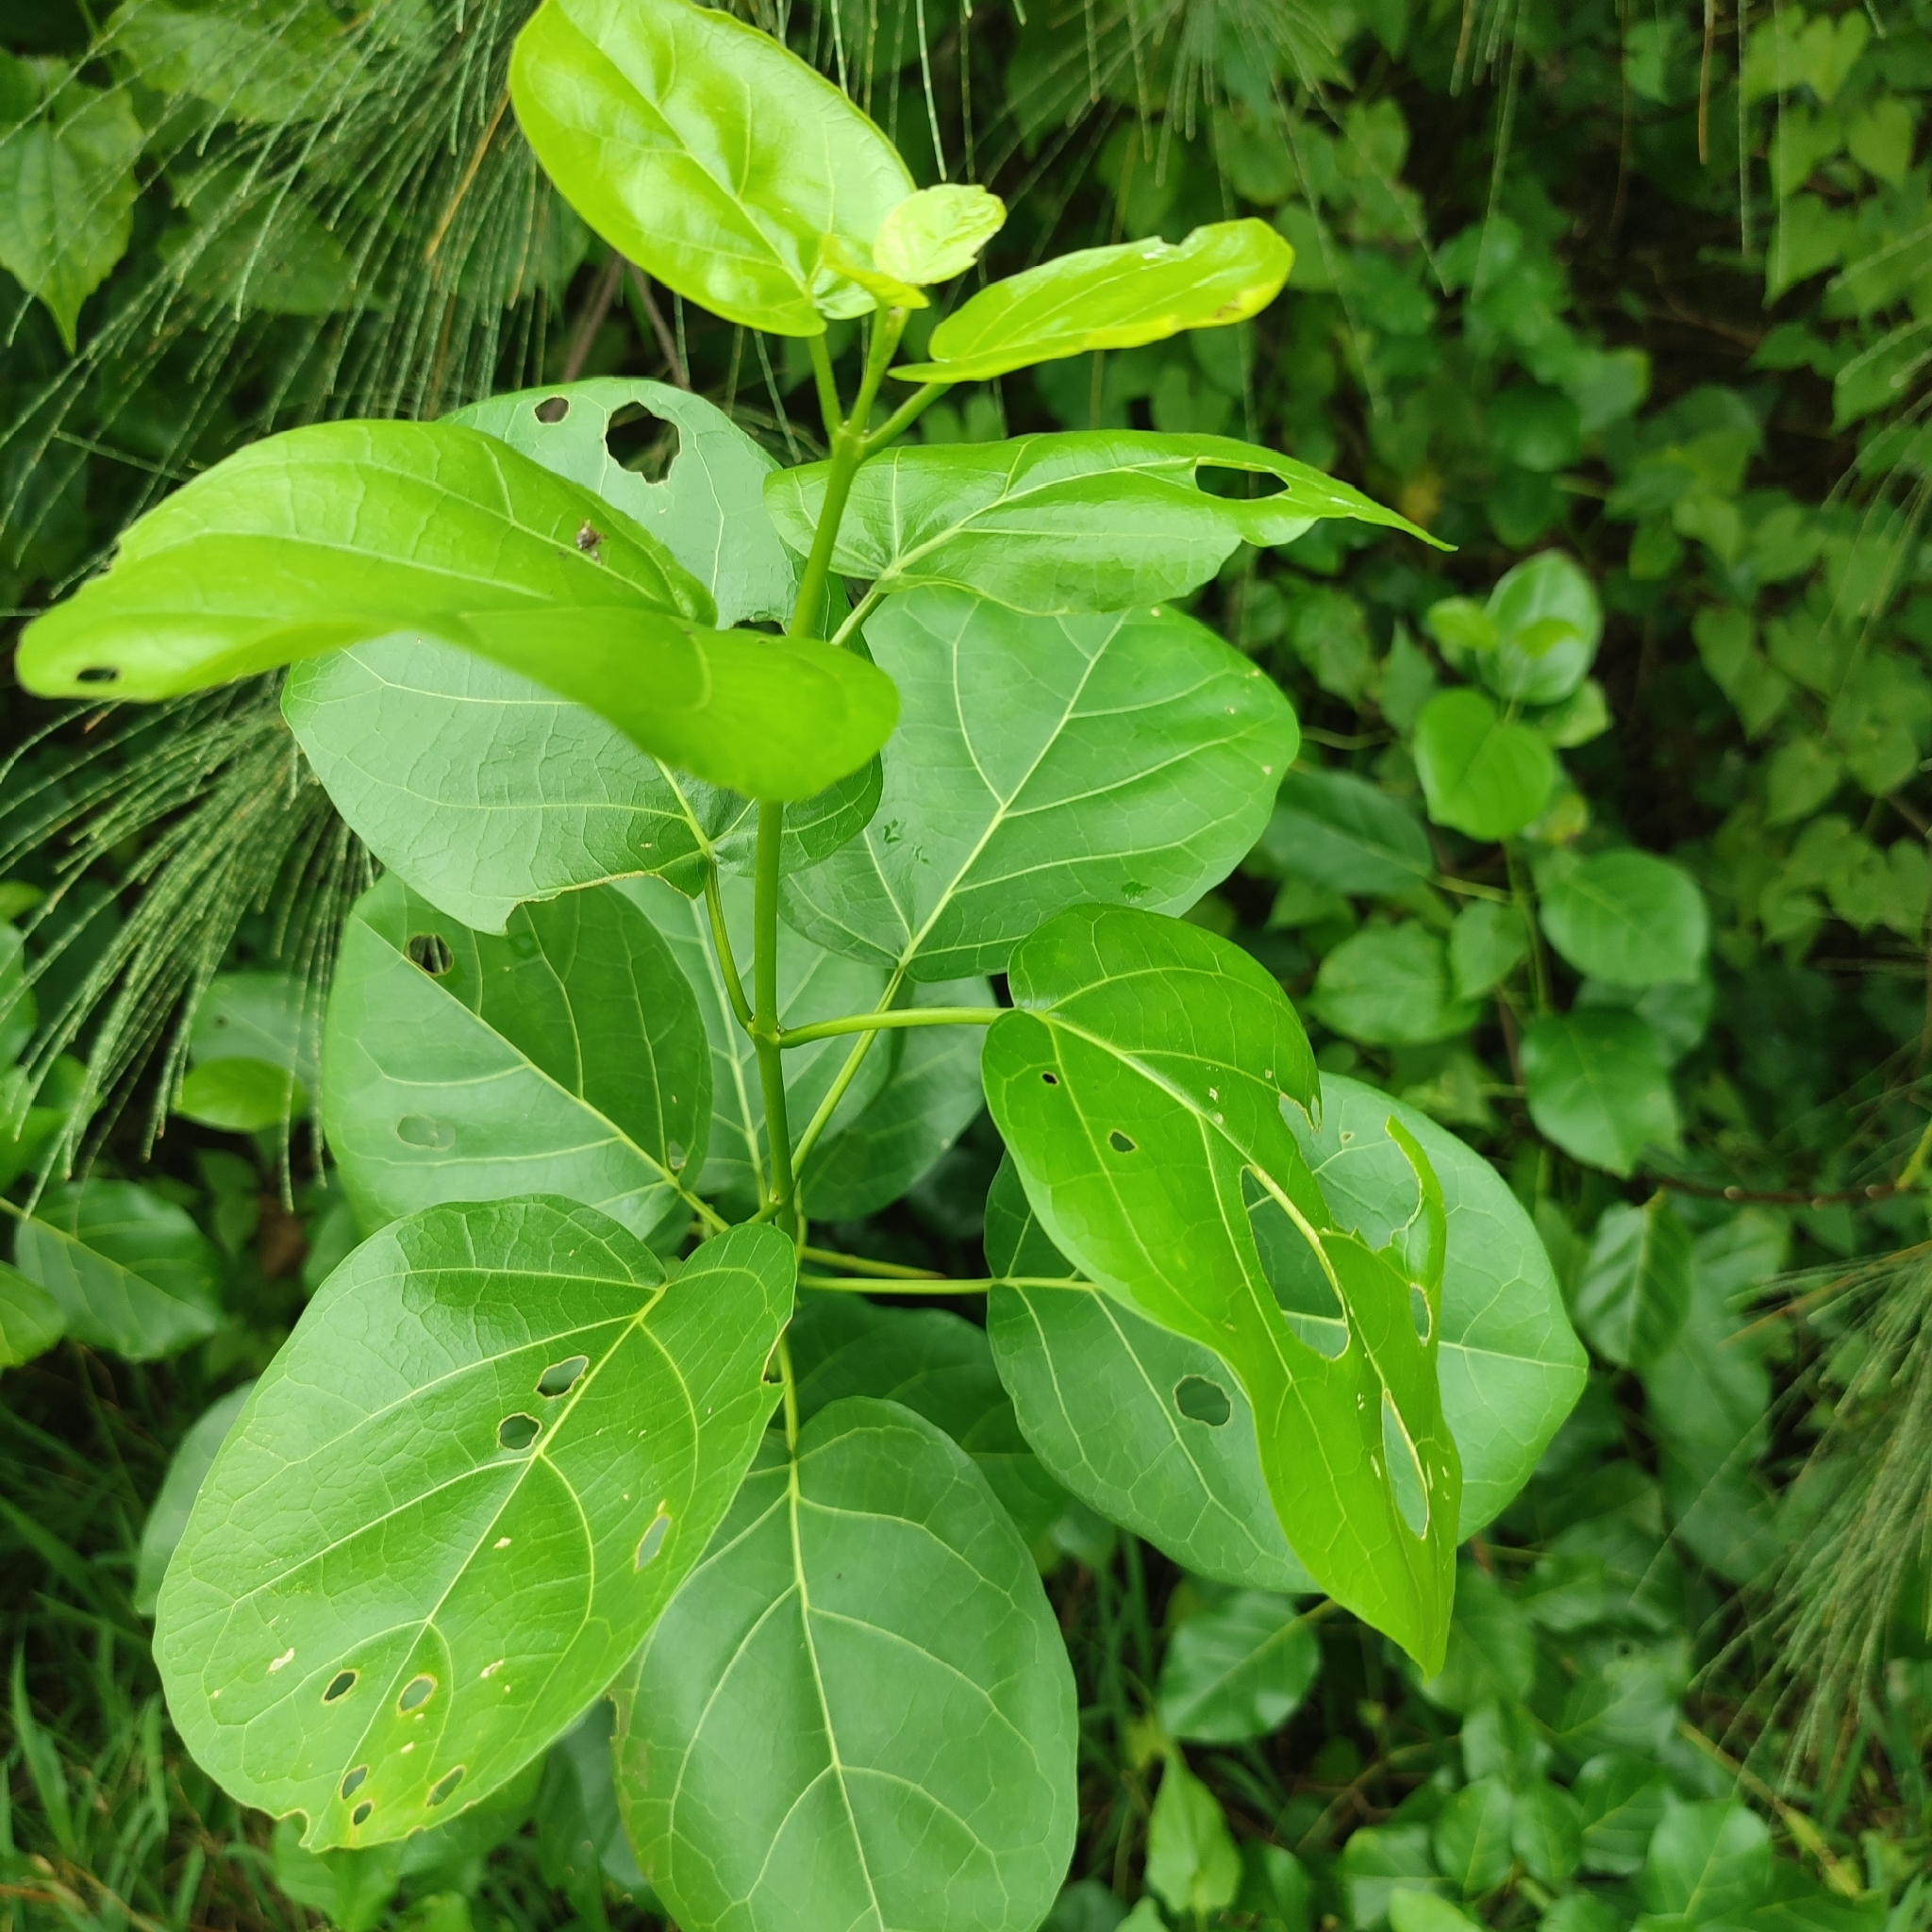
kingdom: Plantae
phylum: Tracheophyta
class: Magnoliopsida
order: Lamiales
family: Lamiaceae
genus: Premna
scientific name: Premna serratifolia
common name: Bastard guelder
